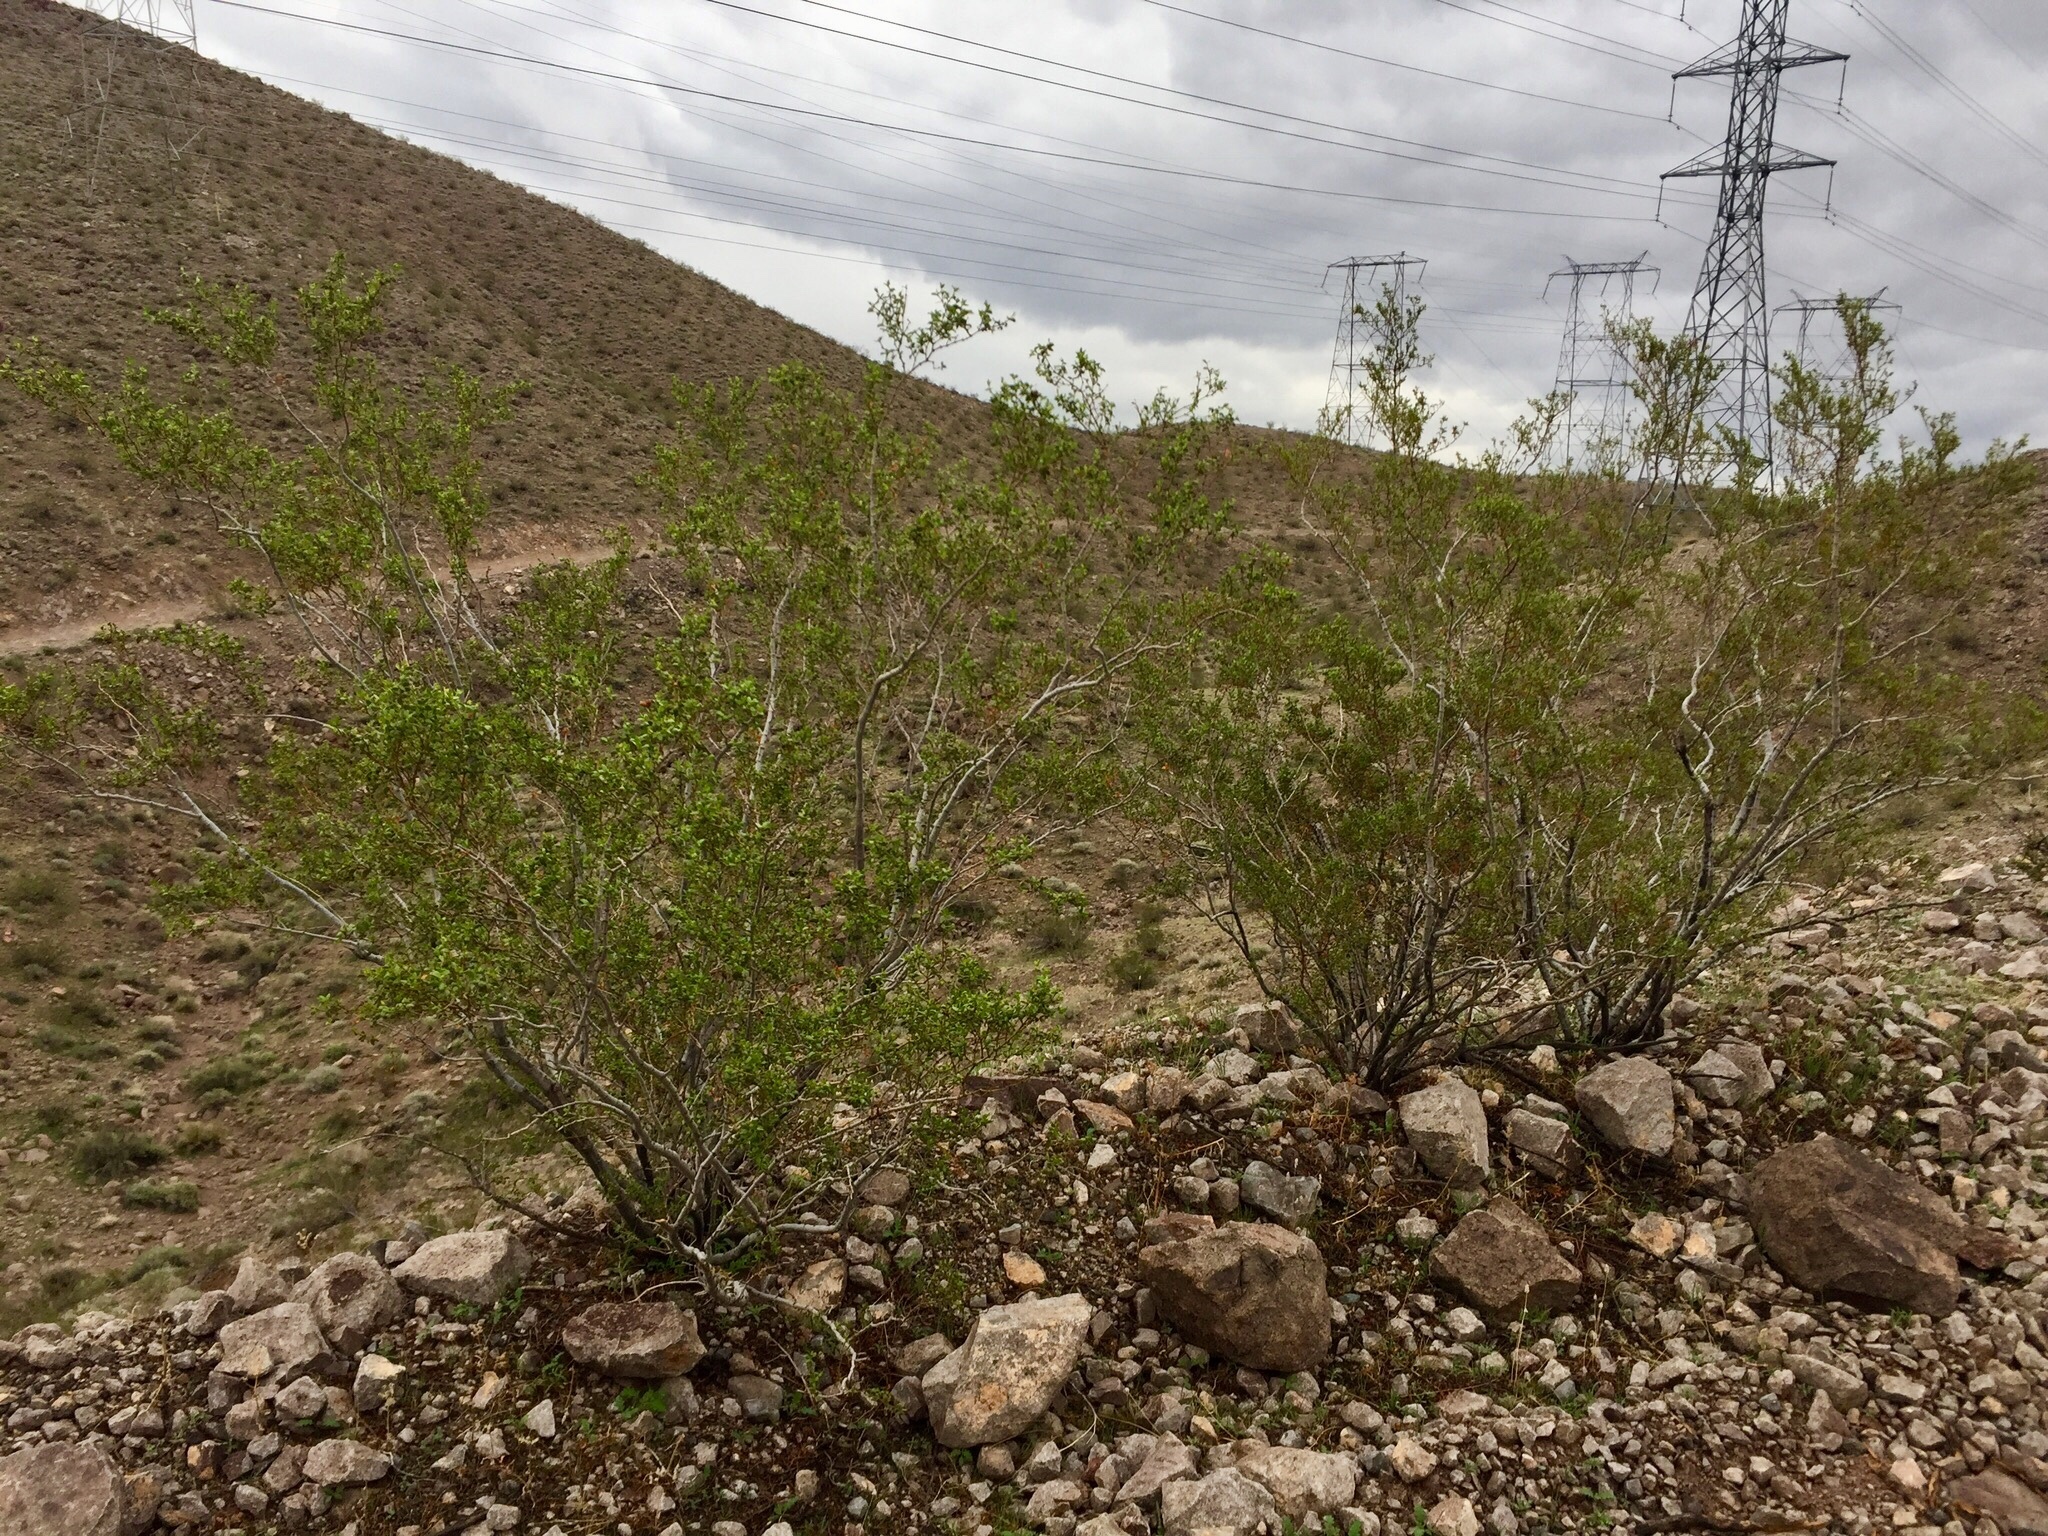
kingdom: Plantae
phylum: Tracheophyta
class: Magnoliopsida
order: Zygophyllales
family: Zygophyllaceae
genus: Larrea
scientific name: Larrea tridentata
